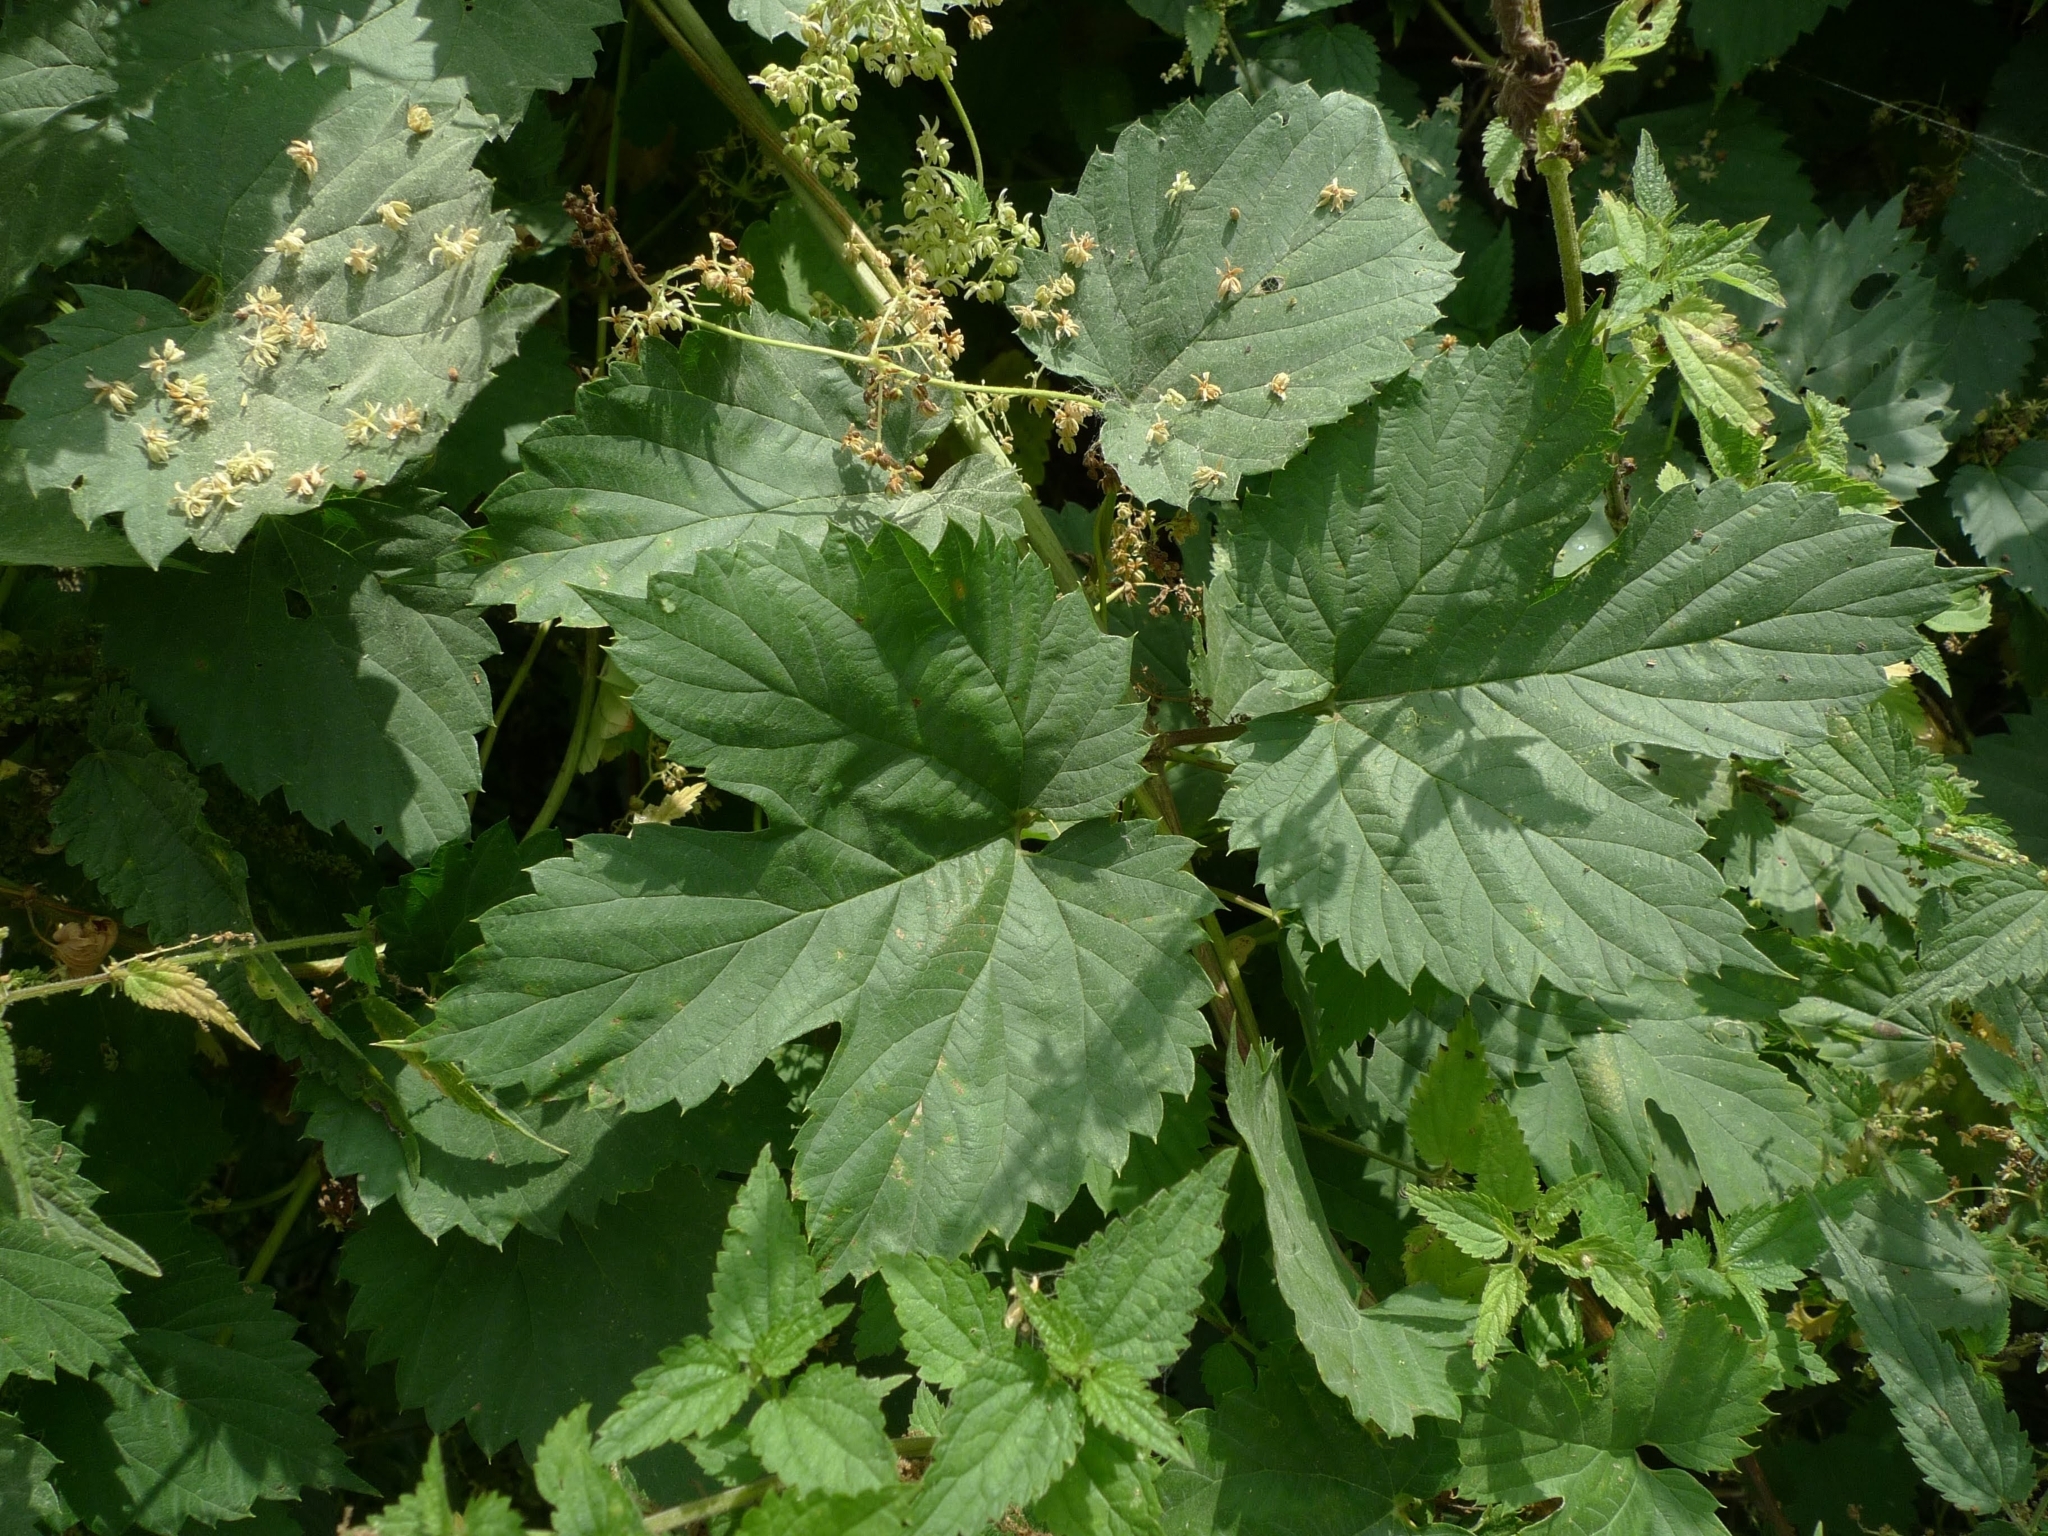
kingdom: Plantae
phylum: Tracheophyta
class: Magnoliopsida
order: Rosales
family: Cannabaceae
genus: Humulus
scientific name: Humulus lupulus
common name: Hop
